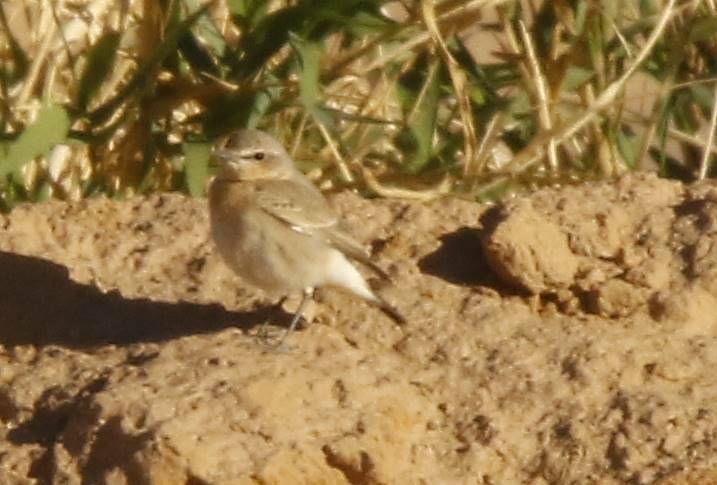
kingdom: Animalia
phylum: Chordata
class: Aves
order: Passeriformes
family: Muscicapidae
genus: Oenanthe
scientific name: Oenanthe isabellina
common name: Isabelline wheatear
